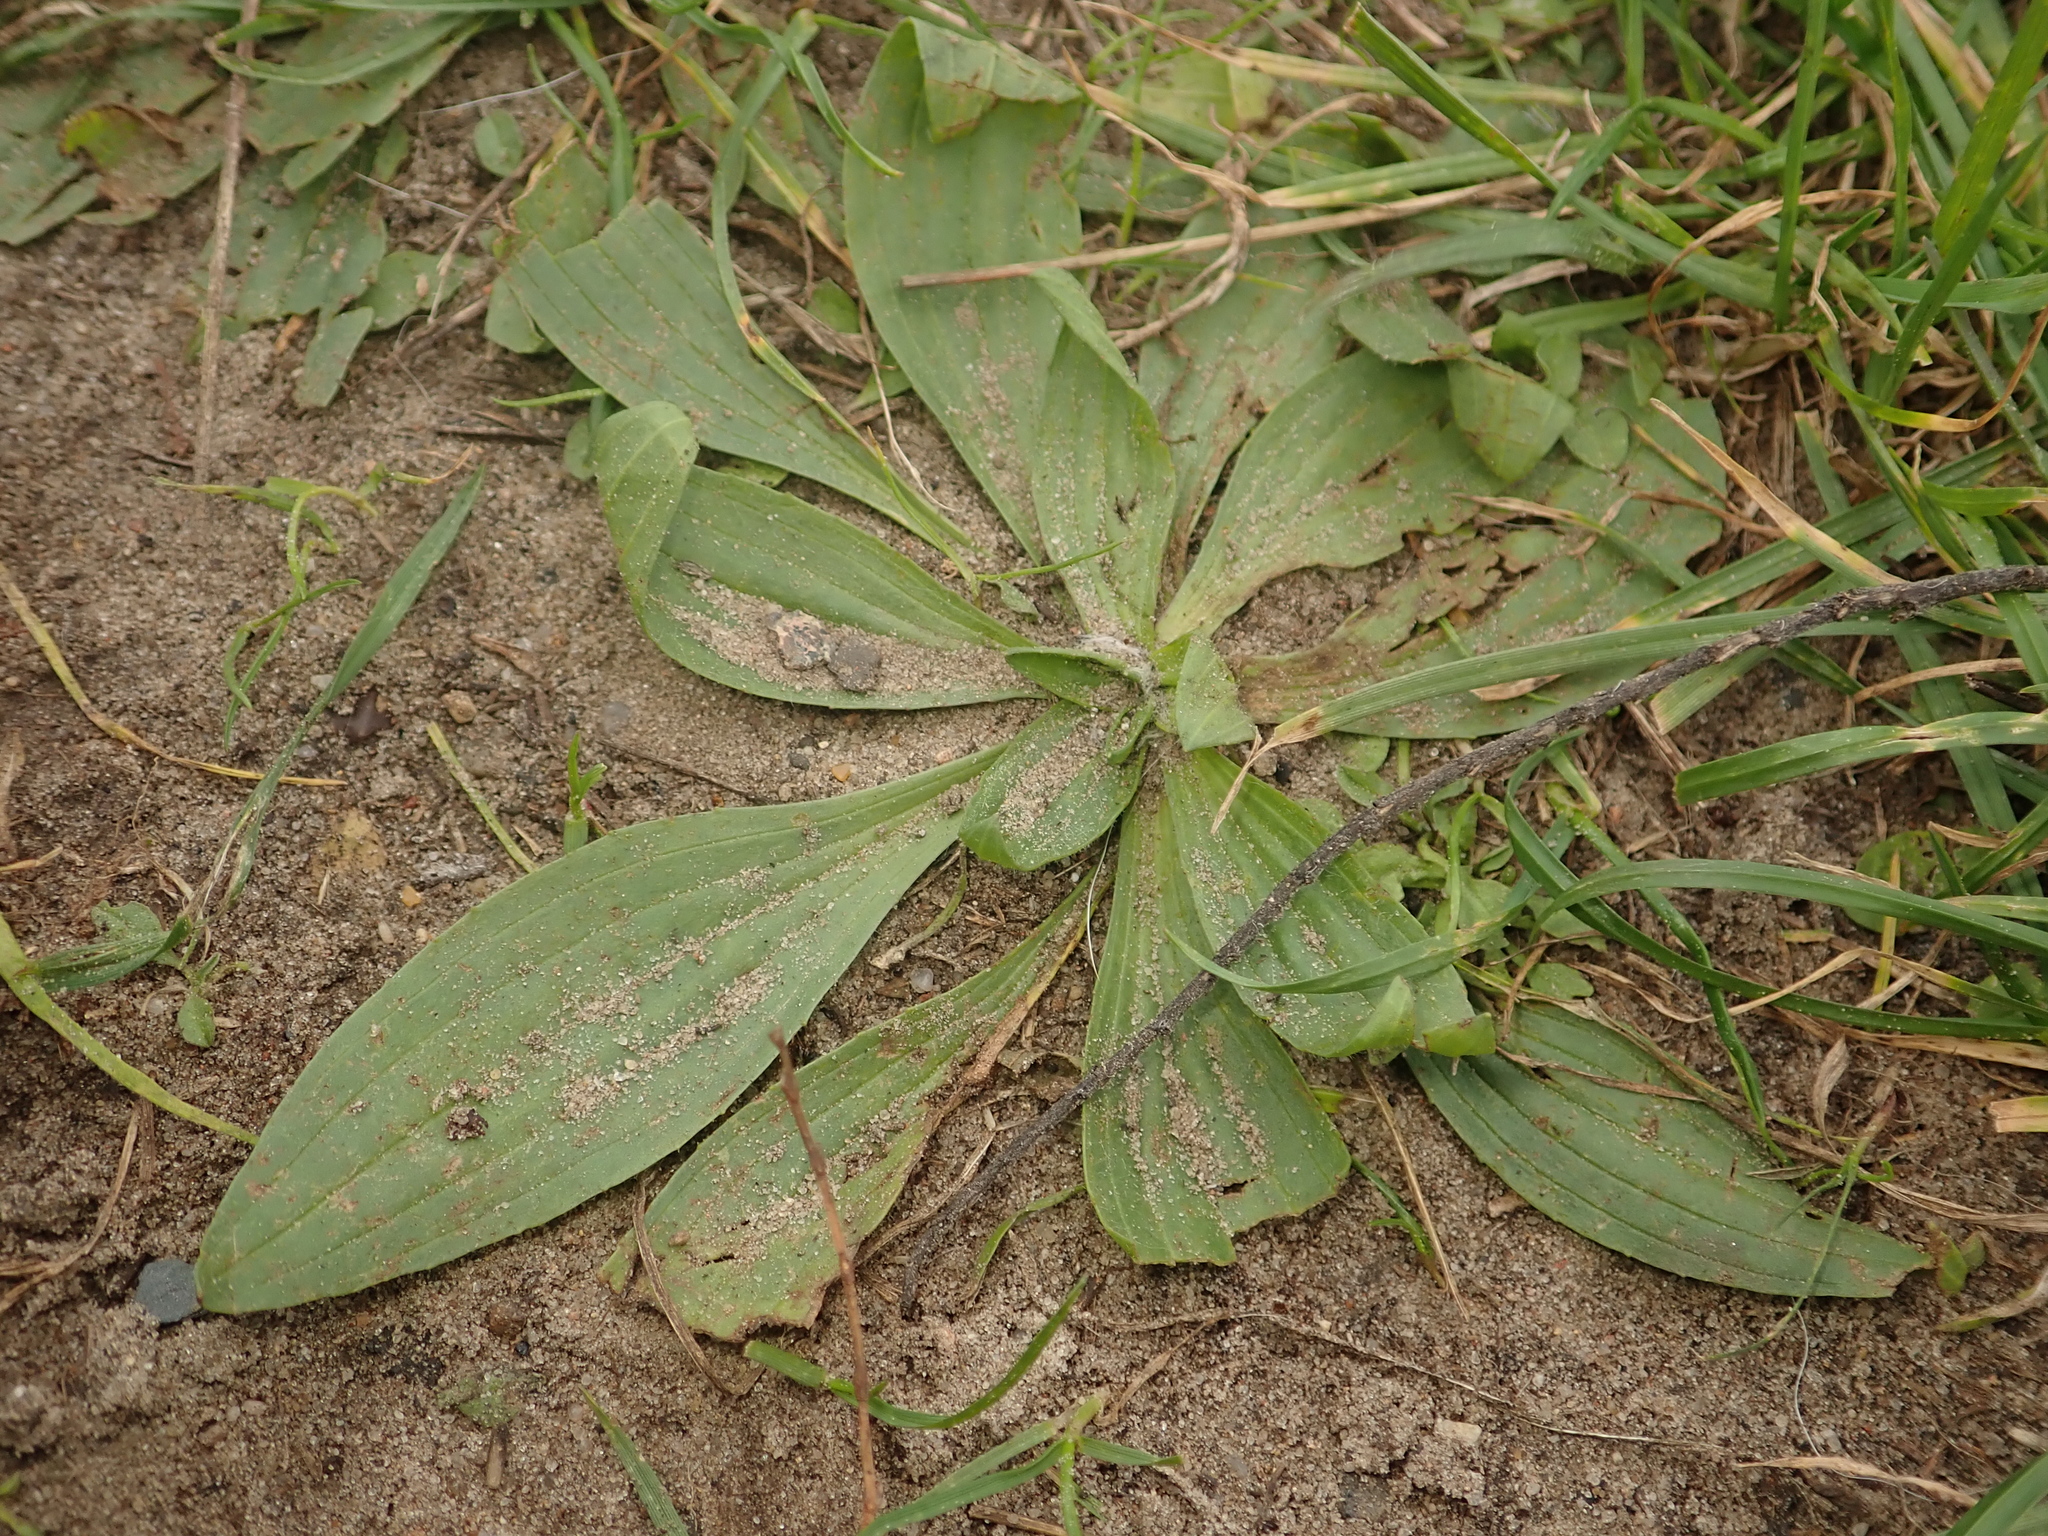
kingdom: Plantae
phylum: Tracheophyta
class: Magnoliopsida
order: Lamiales
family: Plantaginaceae
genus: Plantago
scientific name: Plantago lanceolata
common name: Ribwort plantain
